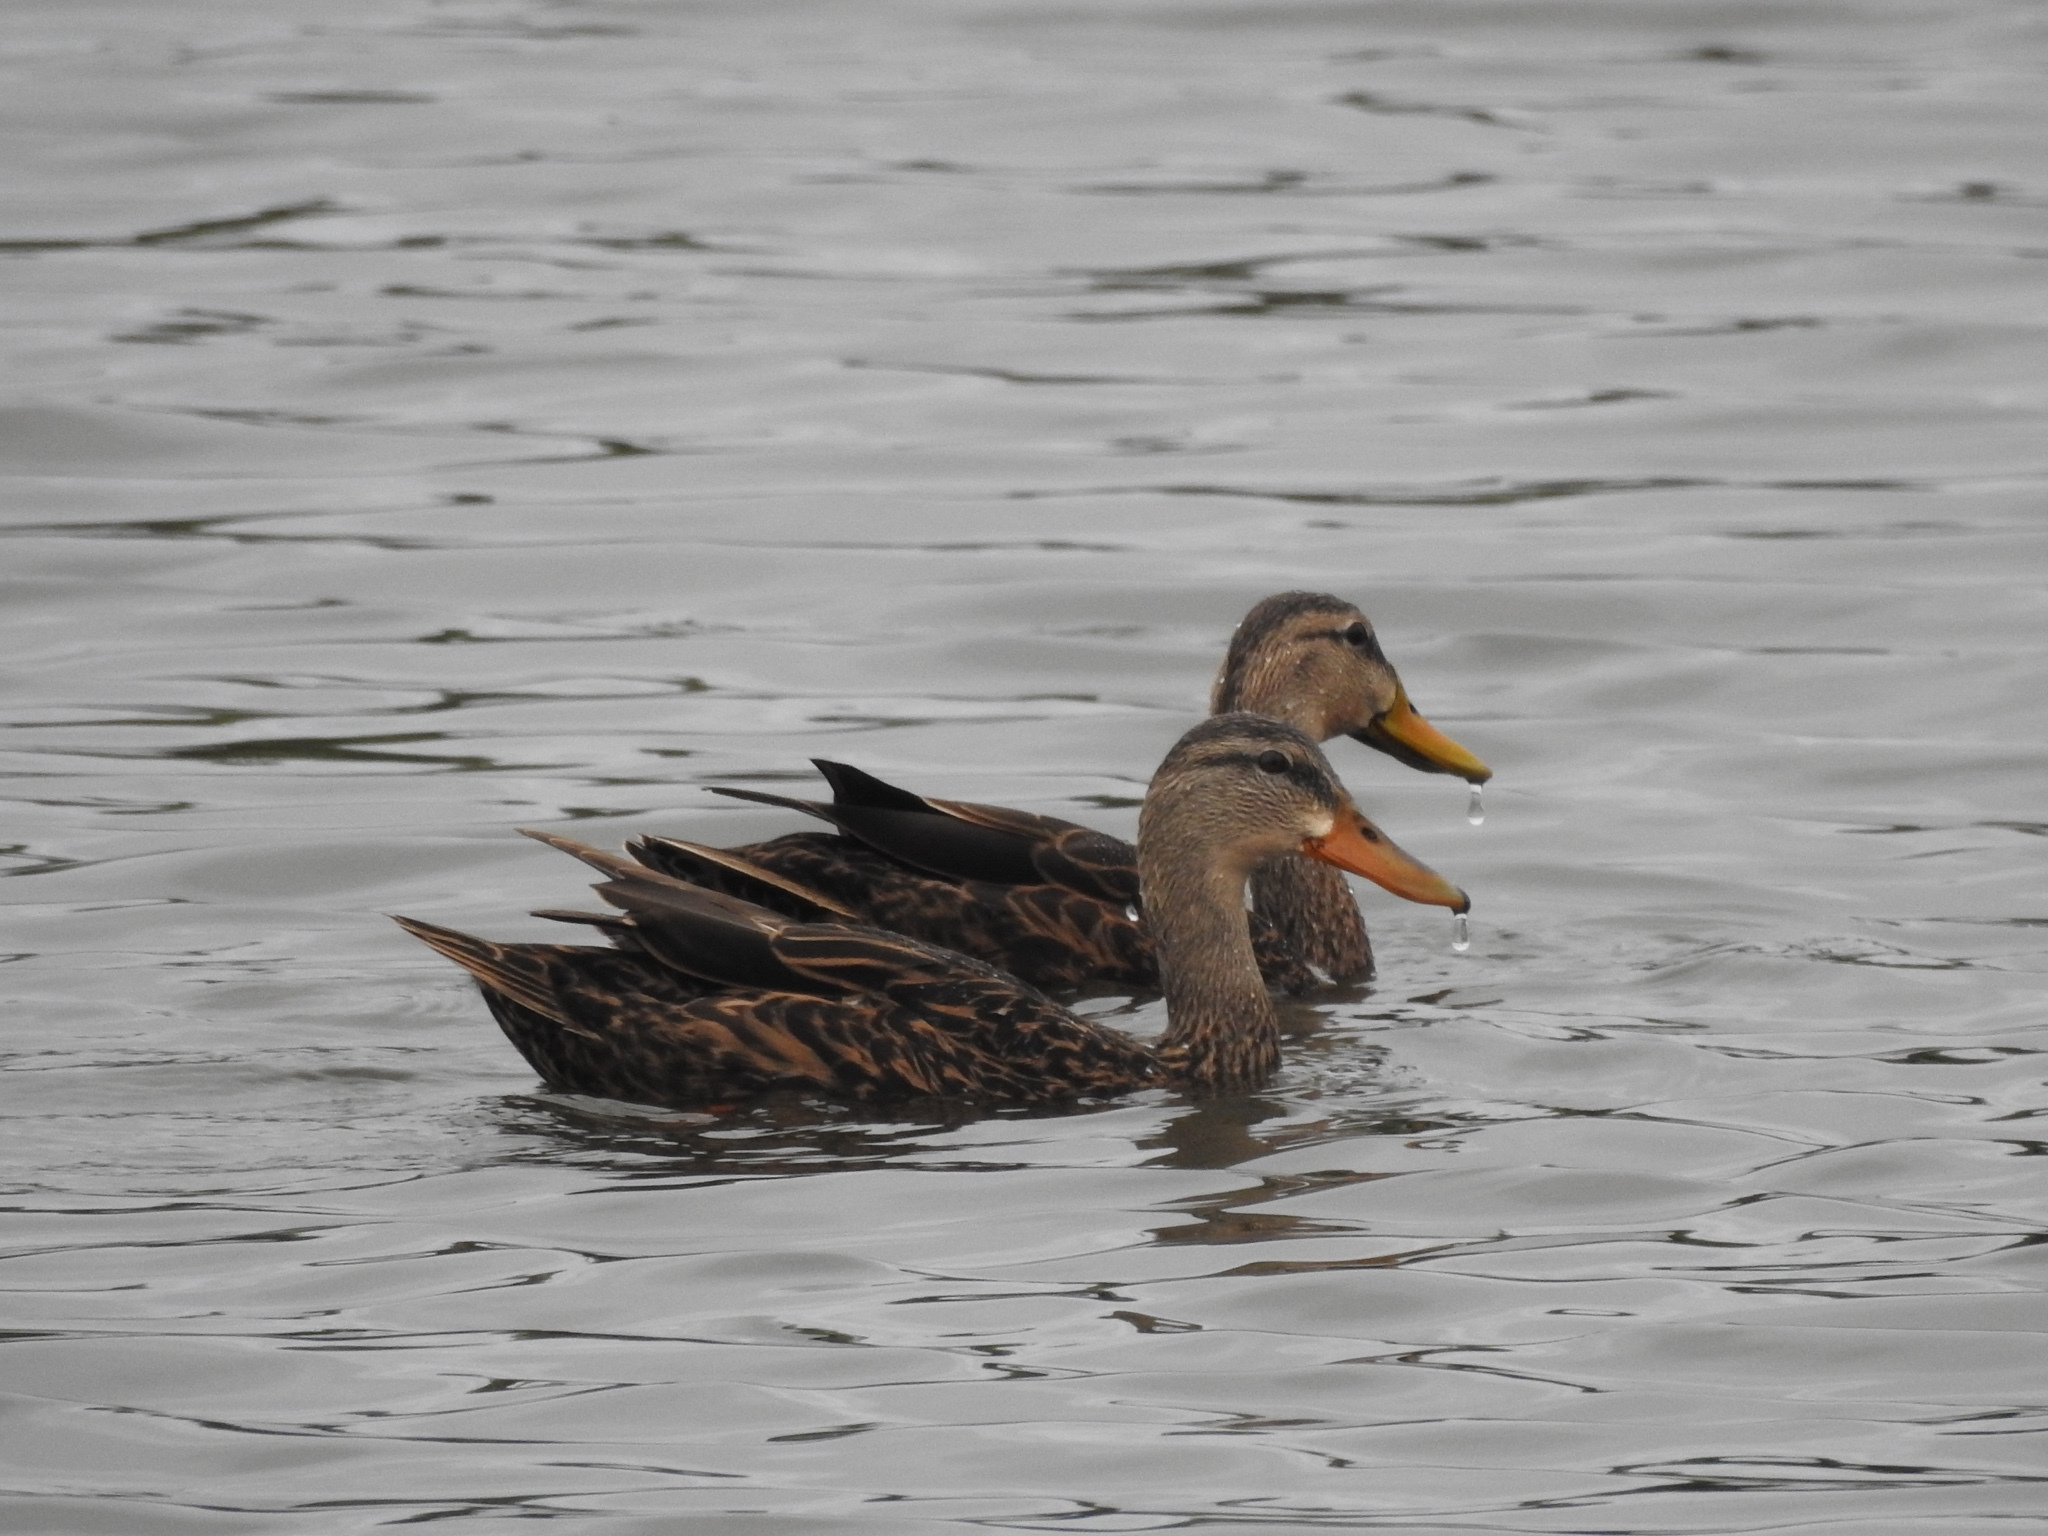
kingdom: Animalia
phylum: Chordata
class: Aves
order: Anseriformes
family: Anatidae
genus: Anas
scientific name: Anas fulvigula
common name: Mottled duck
